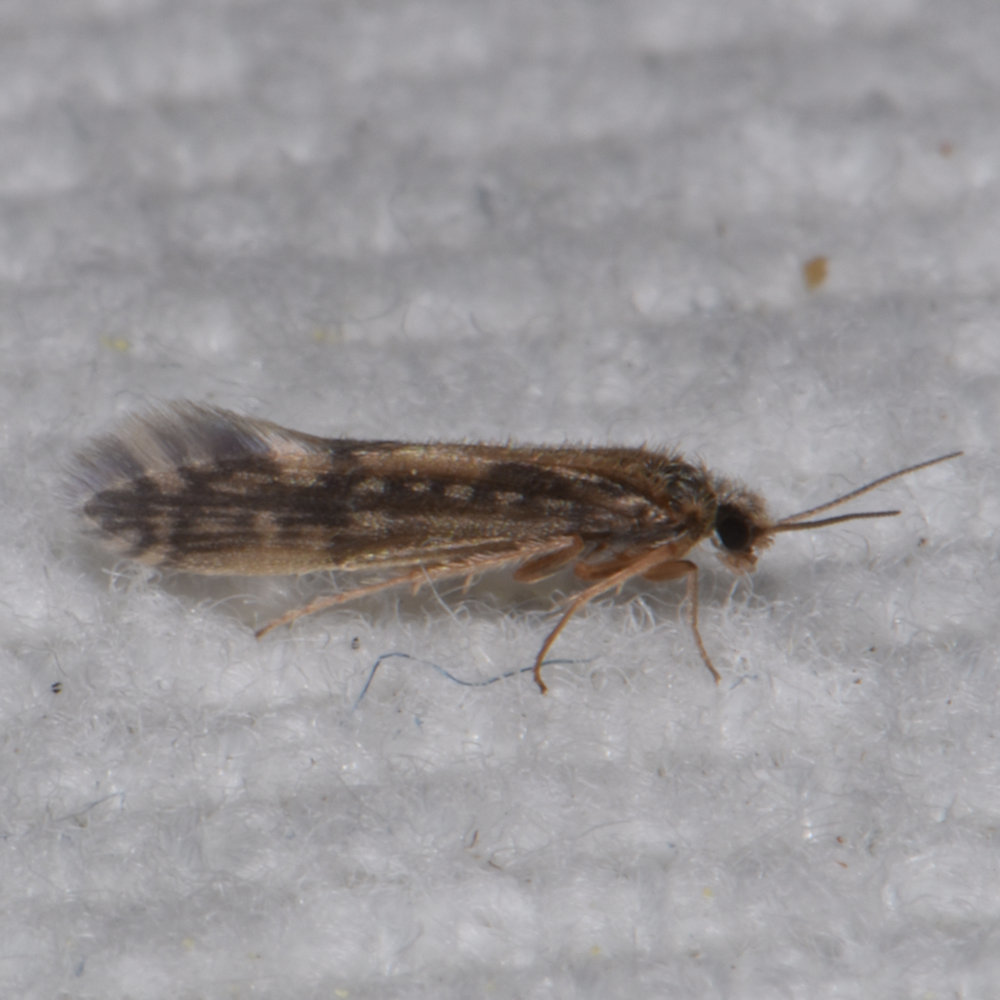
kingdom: Animalia
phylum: Arthropoda
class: Insecta
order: Trichoptera
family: Hydroptilidae
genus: Agraylea
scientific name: Agraylea multipunctata
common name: Salt and pepper microcaddisfly
